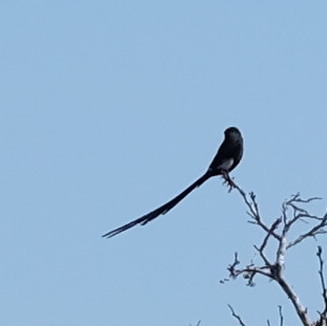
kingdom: Animalia
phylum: Chordata
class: Aves
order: Passeriformes
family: Laniidae
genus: Urolestes
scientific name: Urolestes melanoleucus
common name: Magpie shrike
